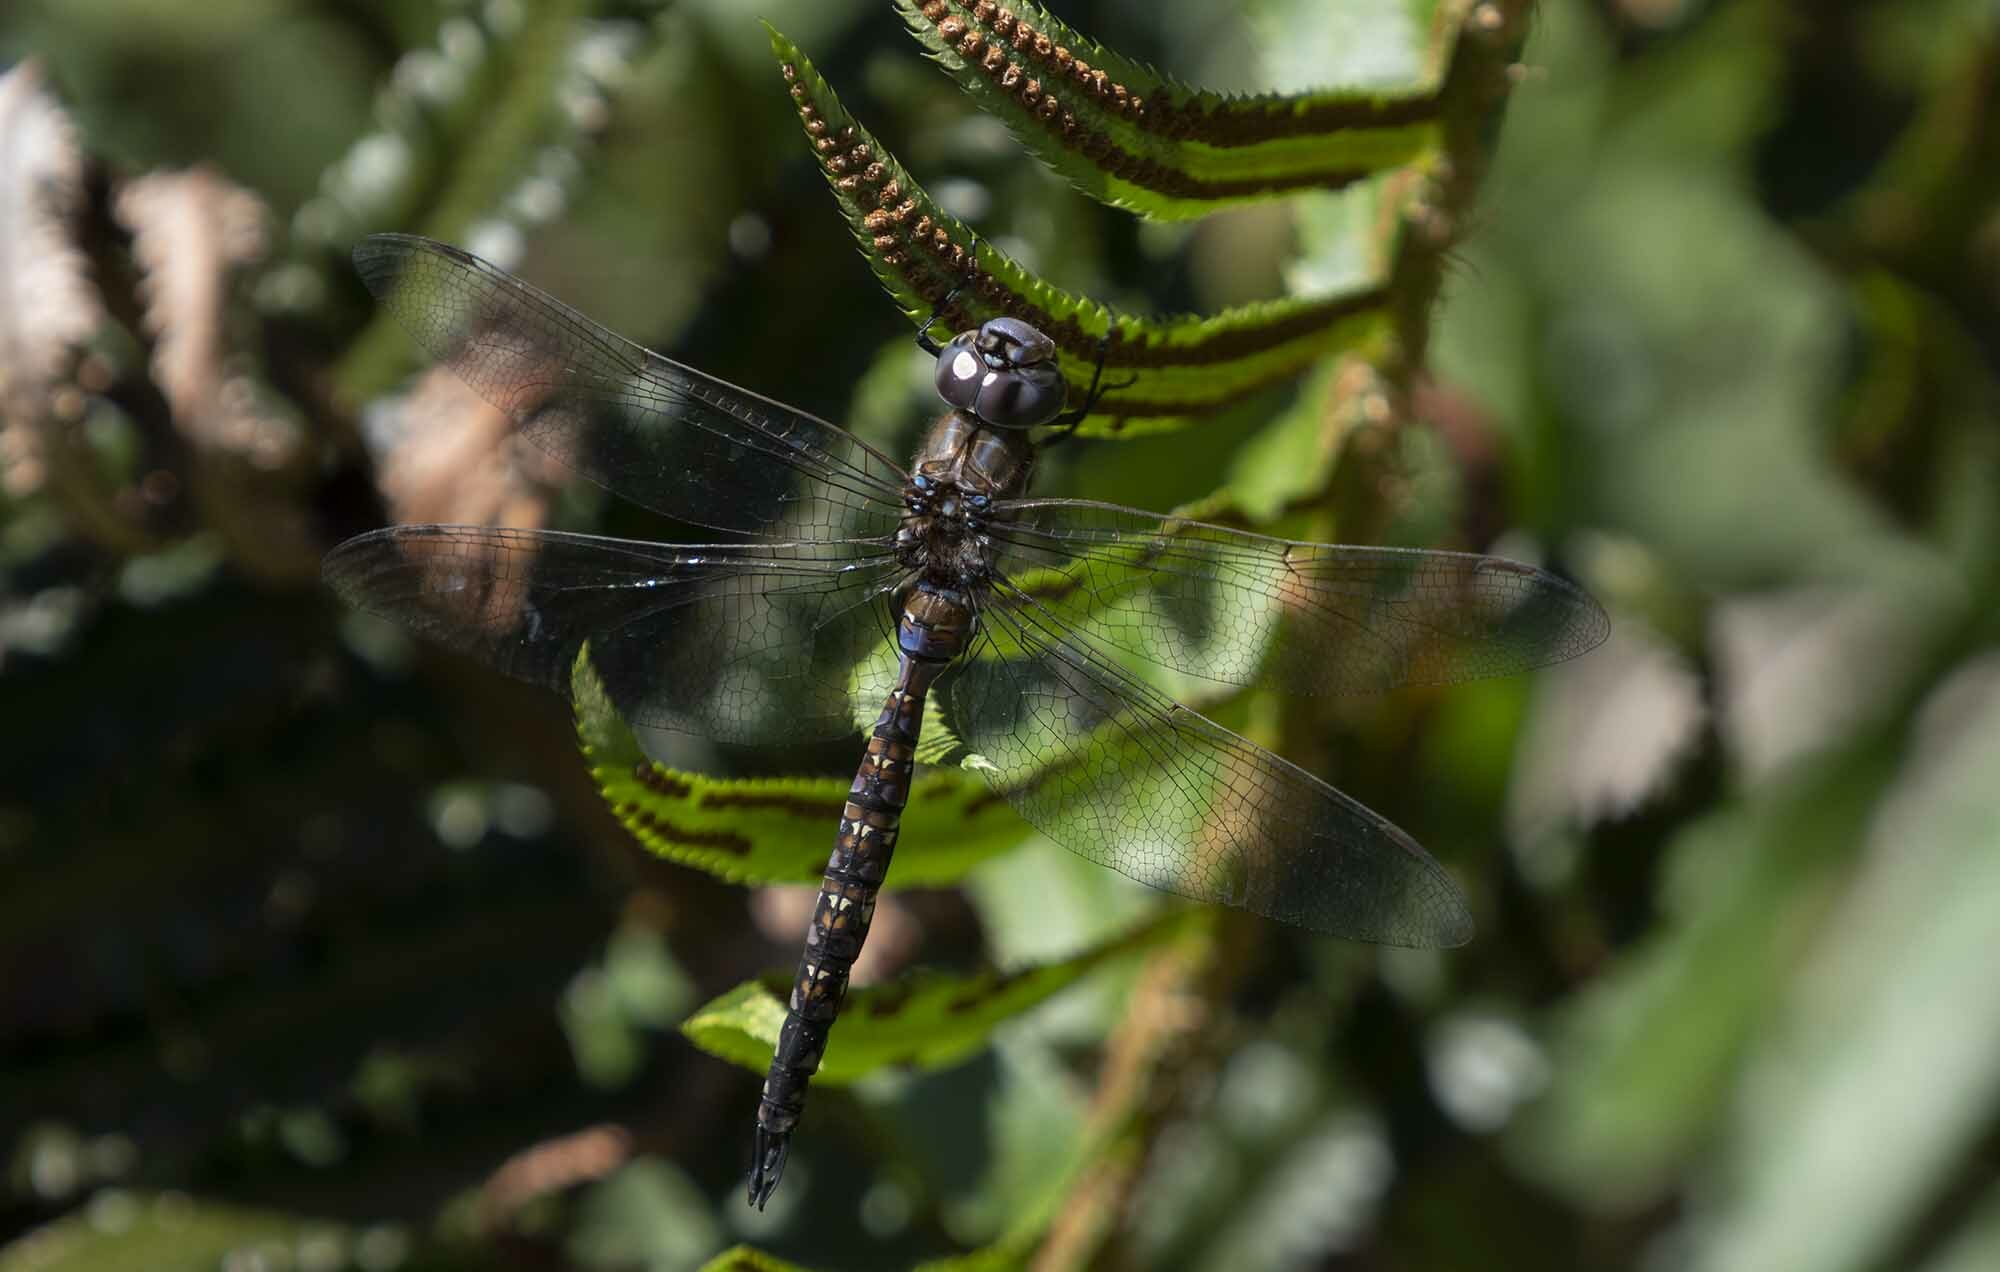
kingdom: Animalia
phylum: Arthropoda
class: Insecta
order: Odonata
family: Aeshnidae
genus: Rhionaeschna
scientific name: Rhionaeschna multicolor
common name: Blue-eyed darner
